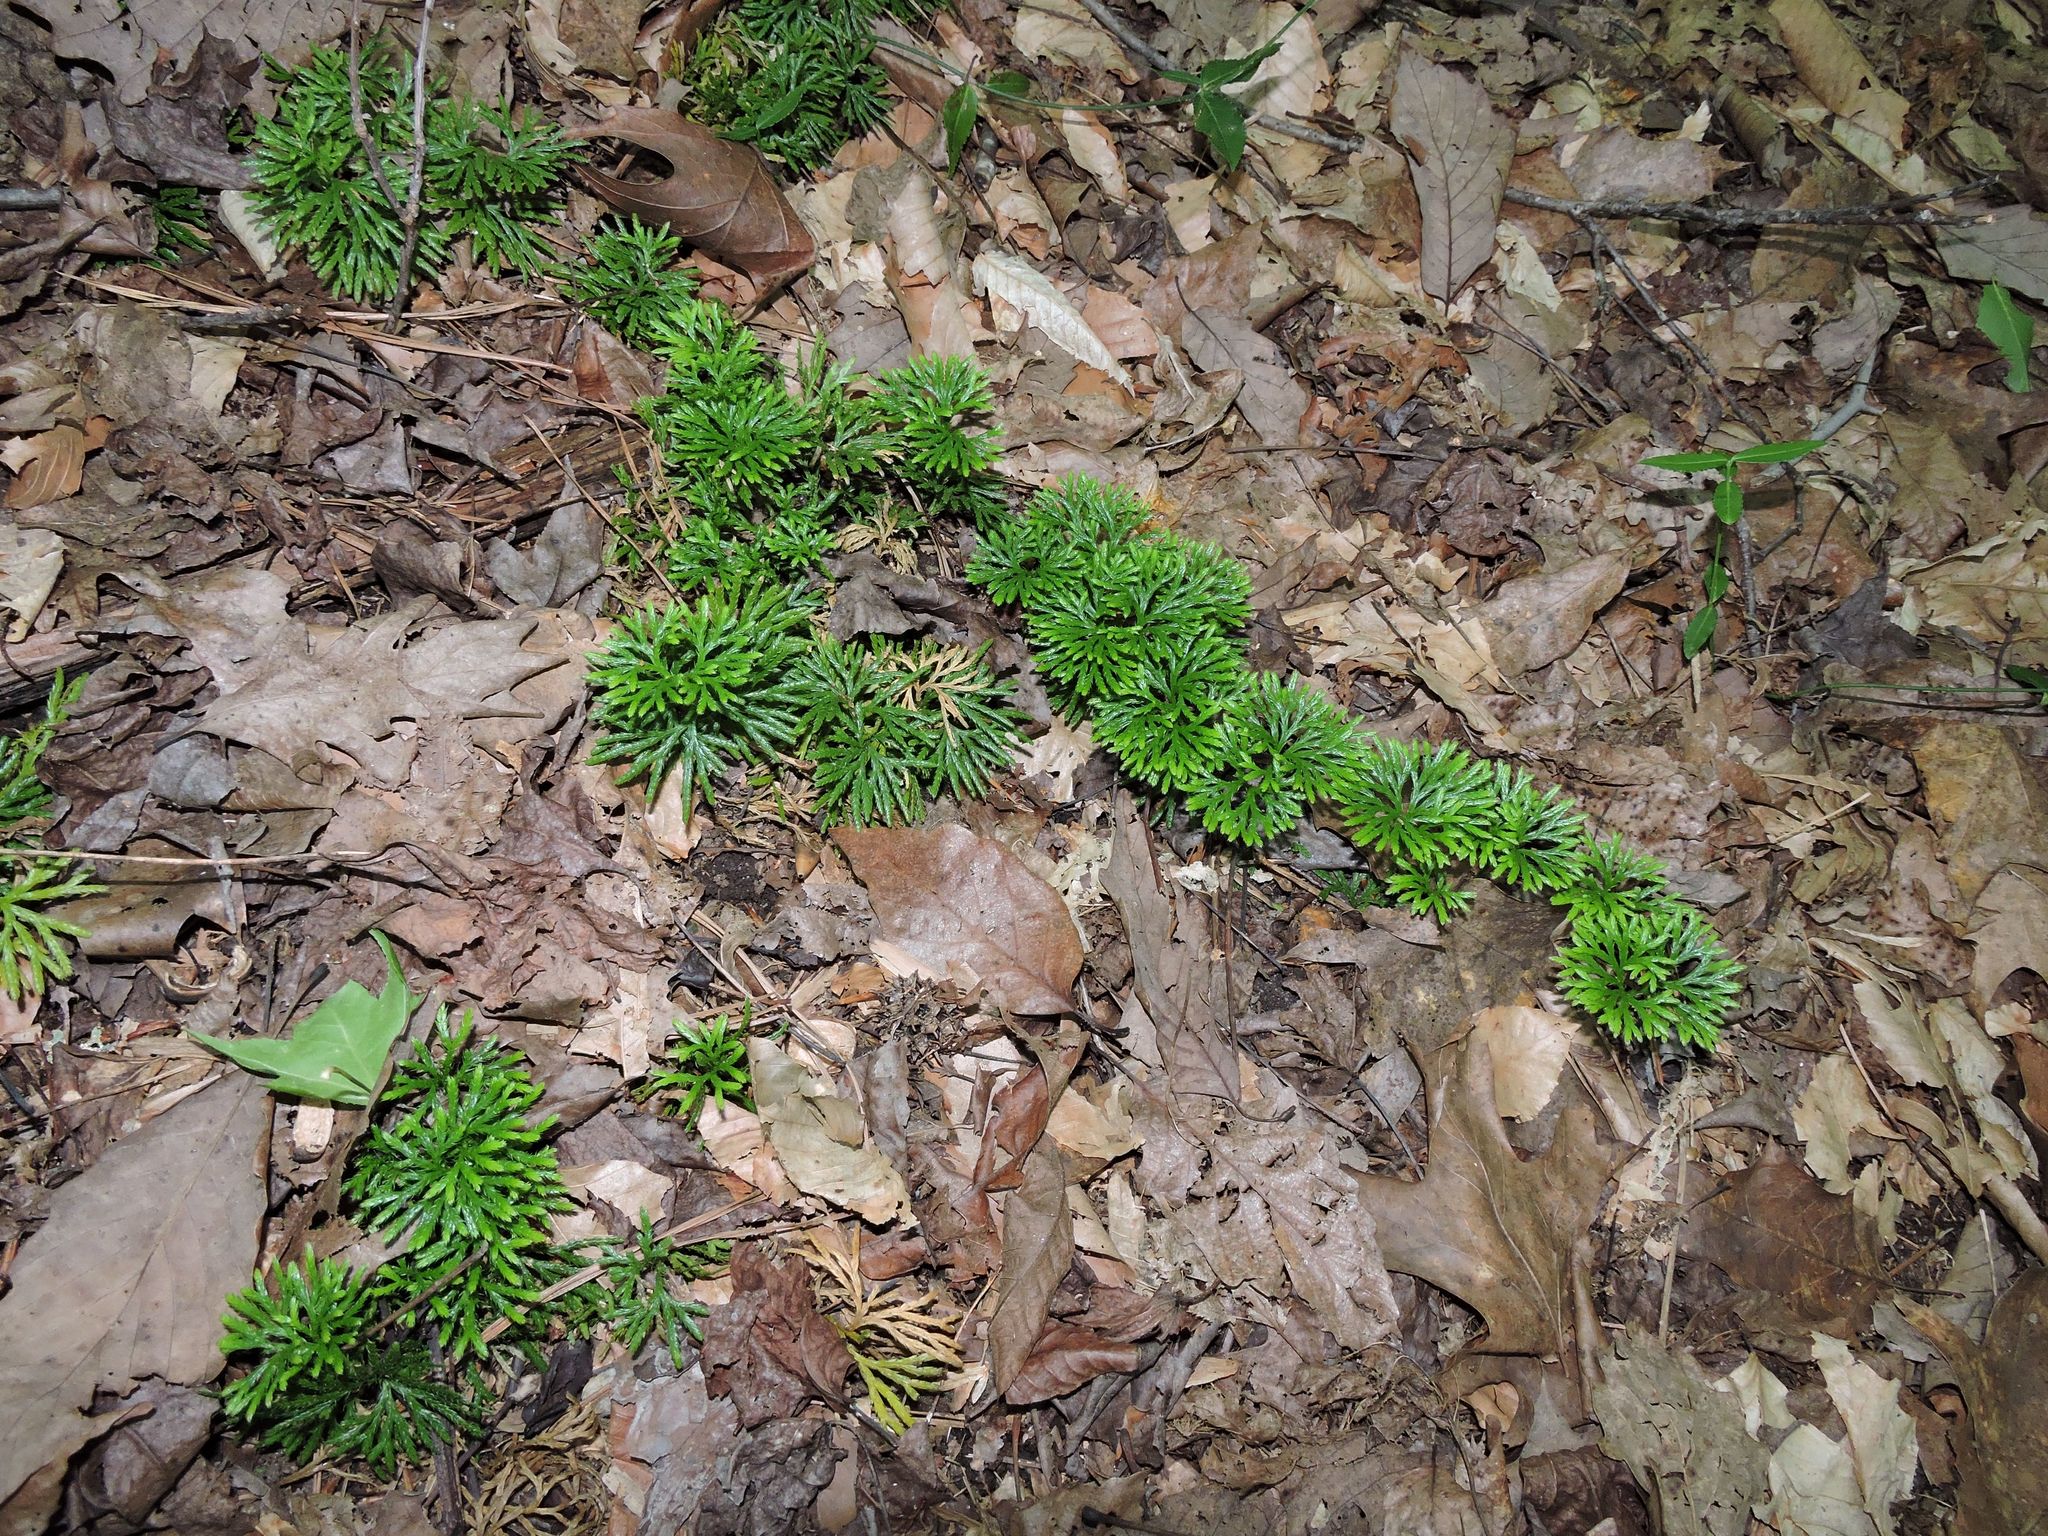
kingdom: Plantae
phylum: Tracheophyta
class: Lycopodiopsida
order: Lycopodiales
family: Lycopodiaceae
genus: Diphasiastrum
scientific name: Diphasiastrum digitatum
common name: Southern running-pine
